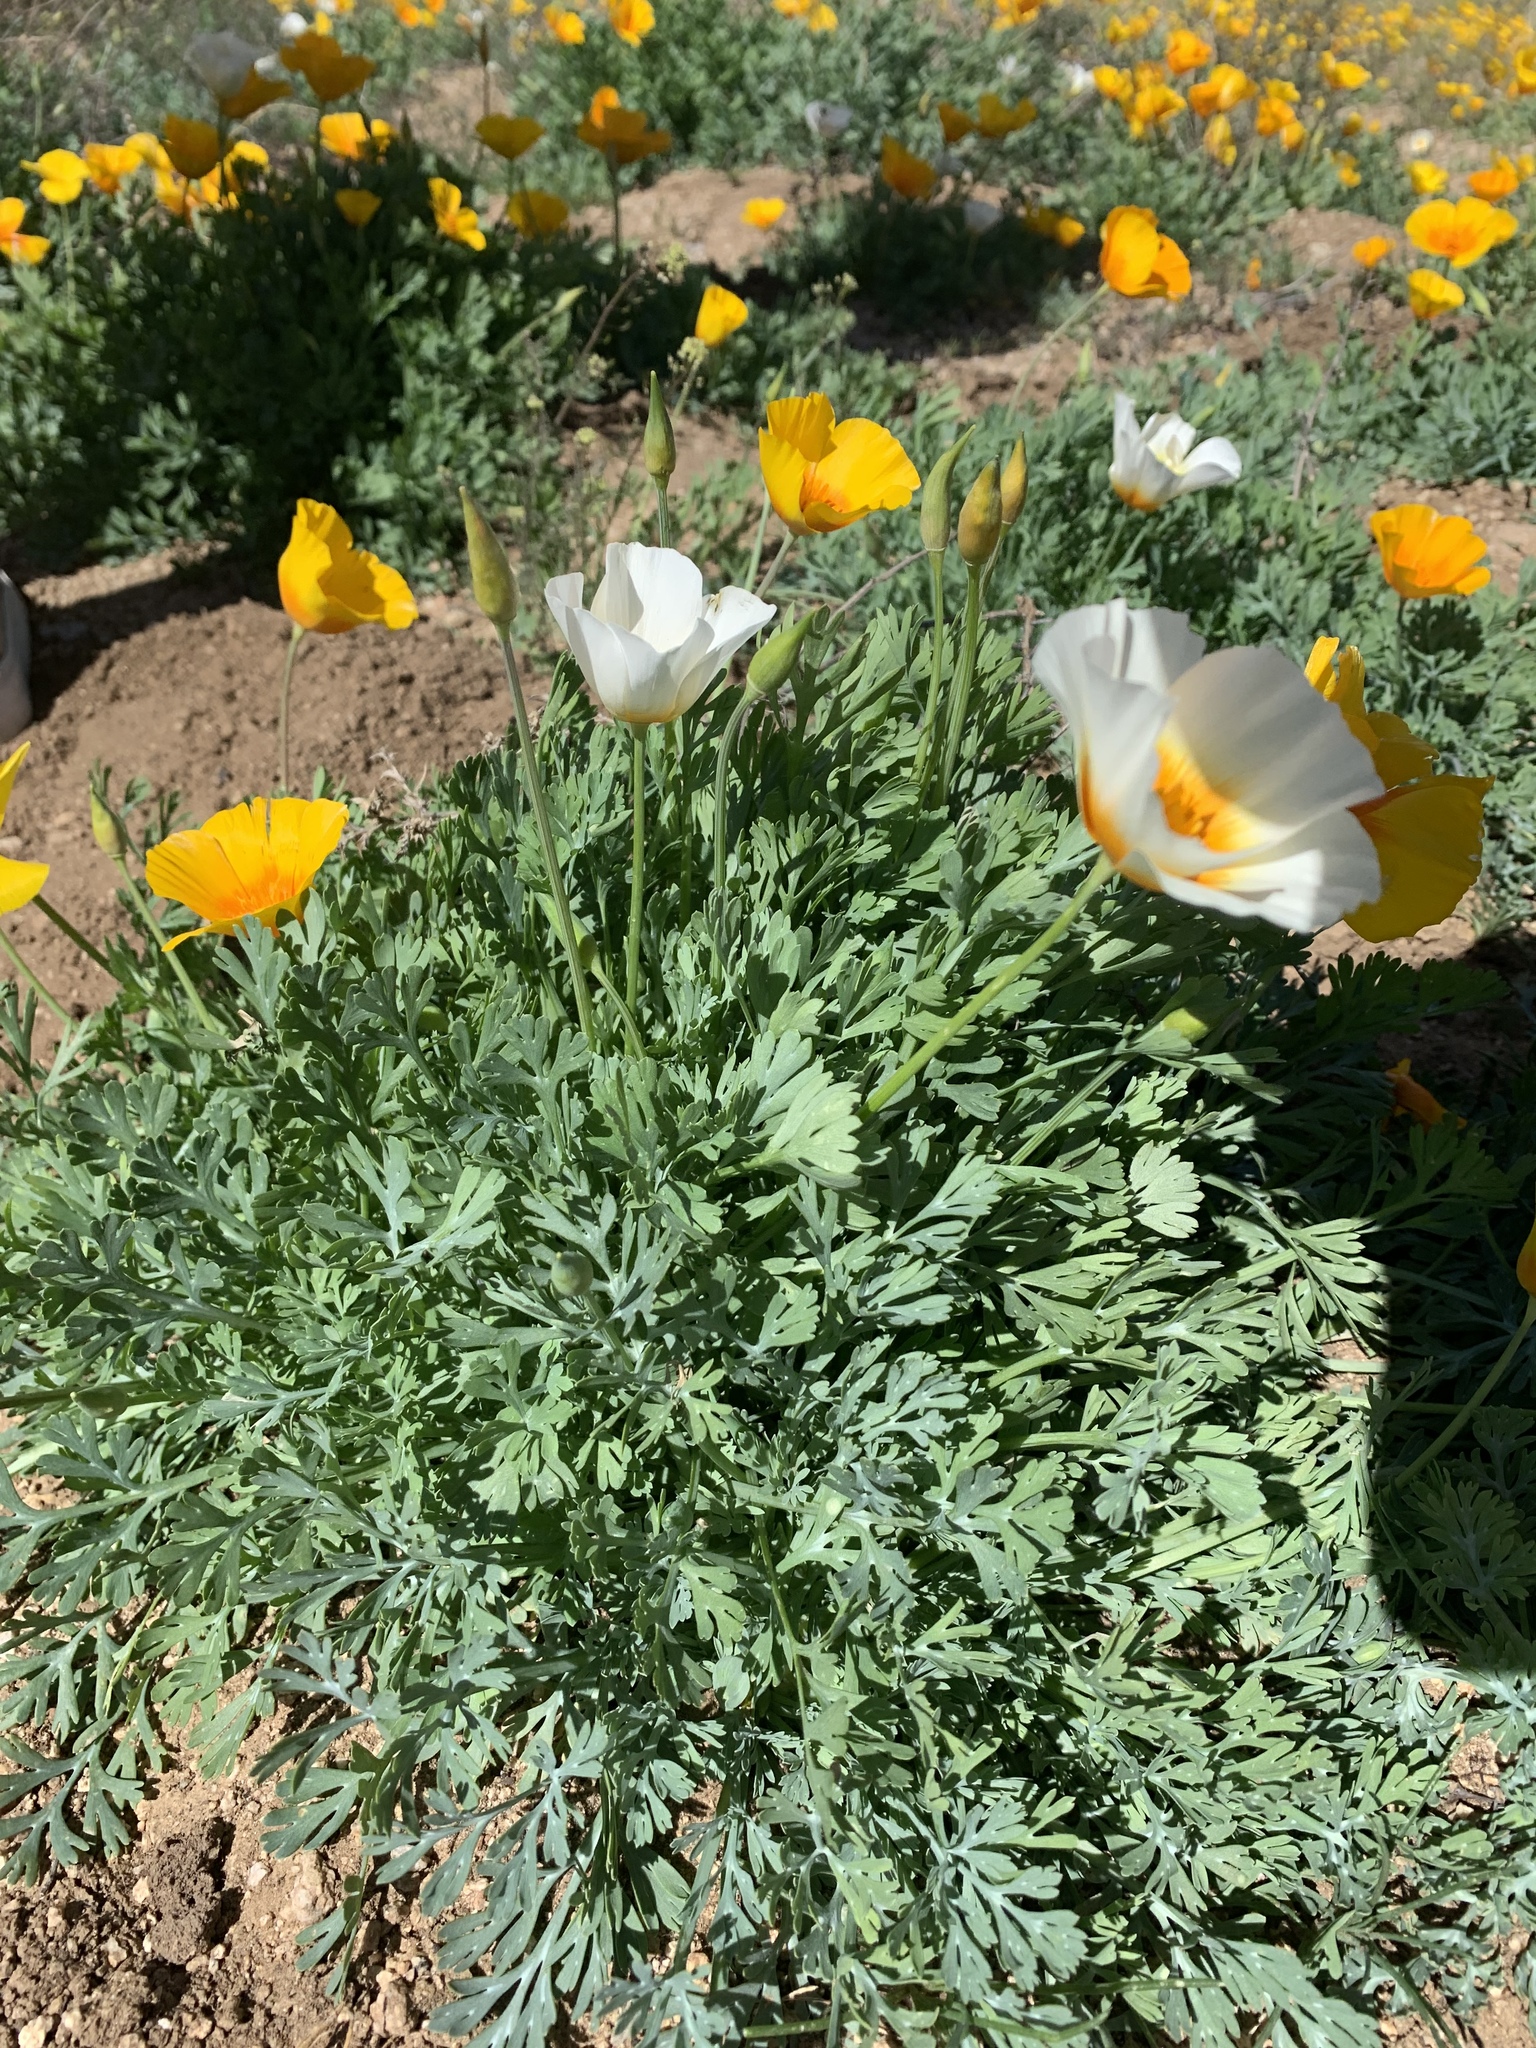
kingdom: Plantae
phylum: Tracheophyta
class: Magnoliopsida
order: Ranunculales
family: Papaveraceae
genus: Eschscholzia
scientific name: Eschscholzia californica
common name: California poppy
